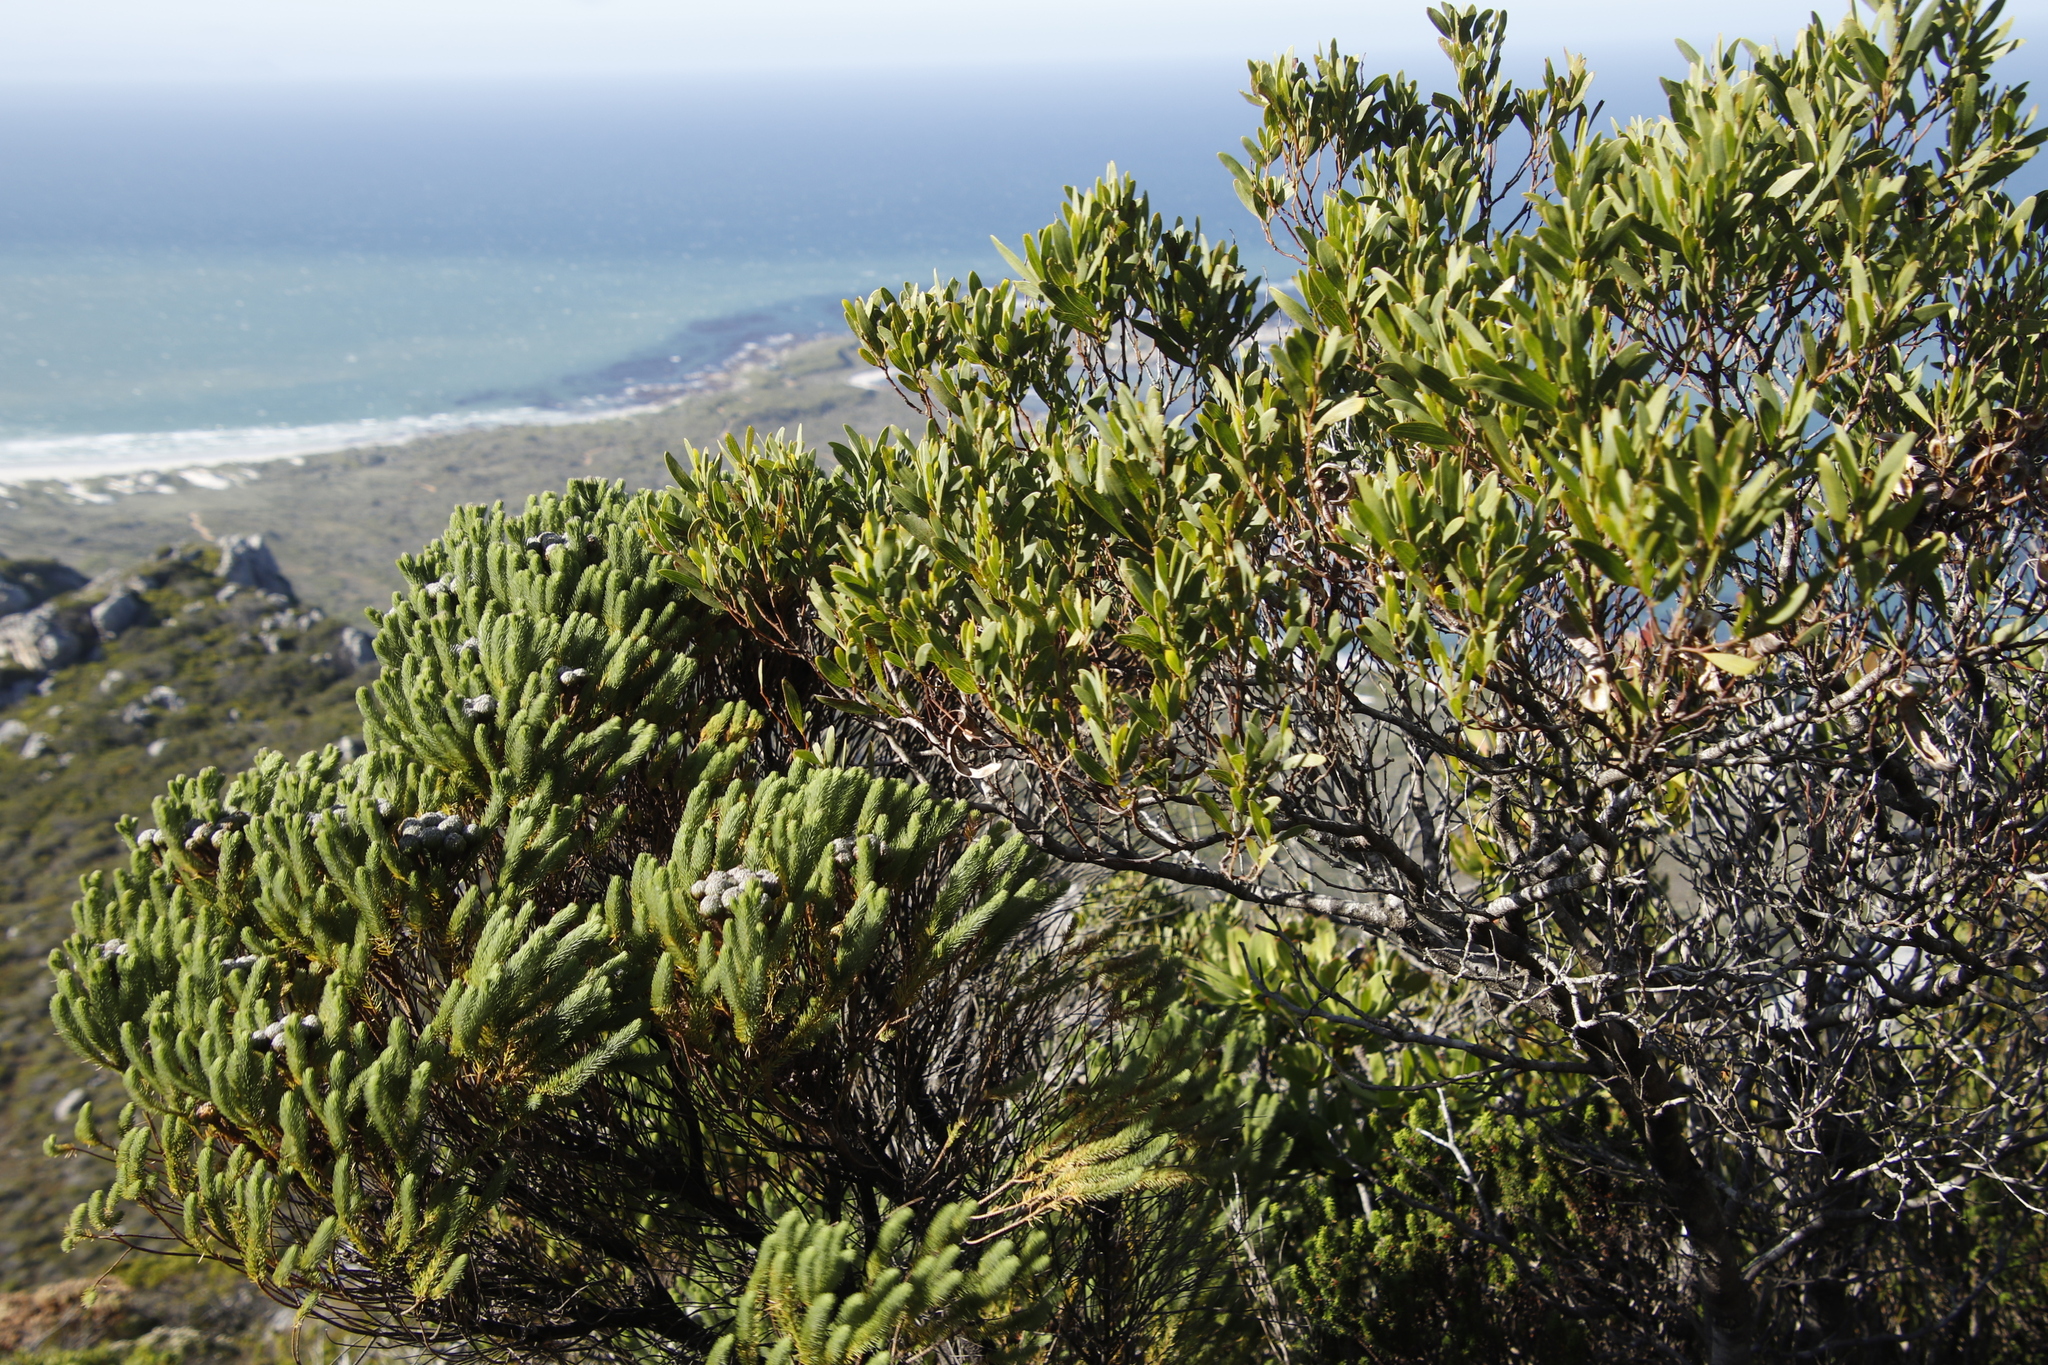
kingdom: Plantae
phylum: Tracheophyta
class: Magnoliopsida
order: Fabales
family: Fabaceae
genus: Acacia
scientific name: Acacia cyclops
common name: Coastal wattle
